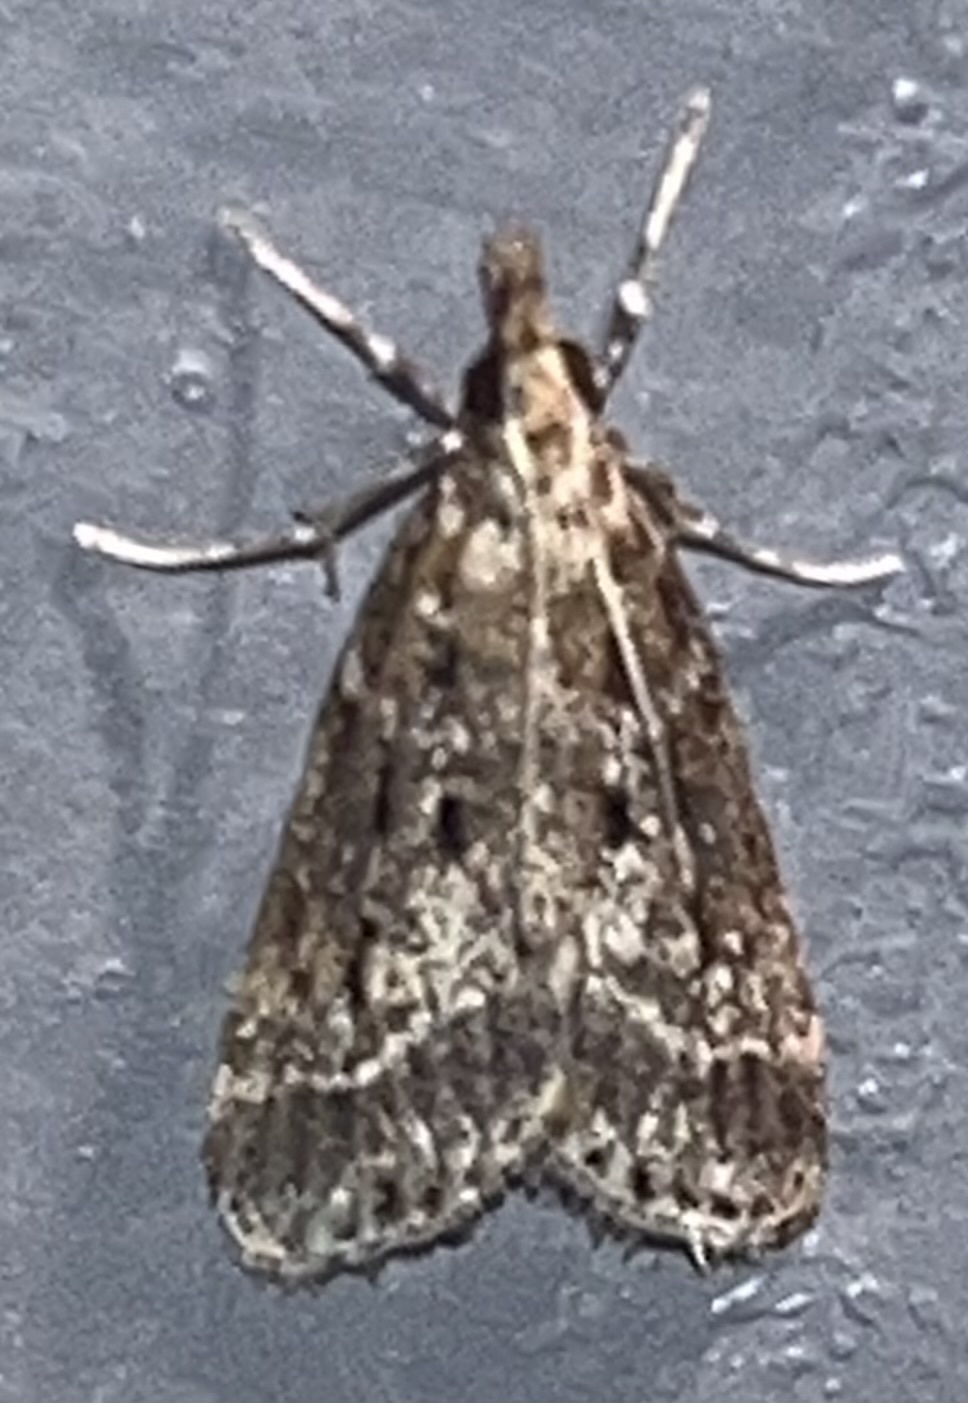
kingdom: Animalia
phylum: Arthropoda
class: Insecta
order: Lepidoptera
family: Crambidae
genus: Eudonia
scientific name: Eudonia commortalis
